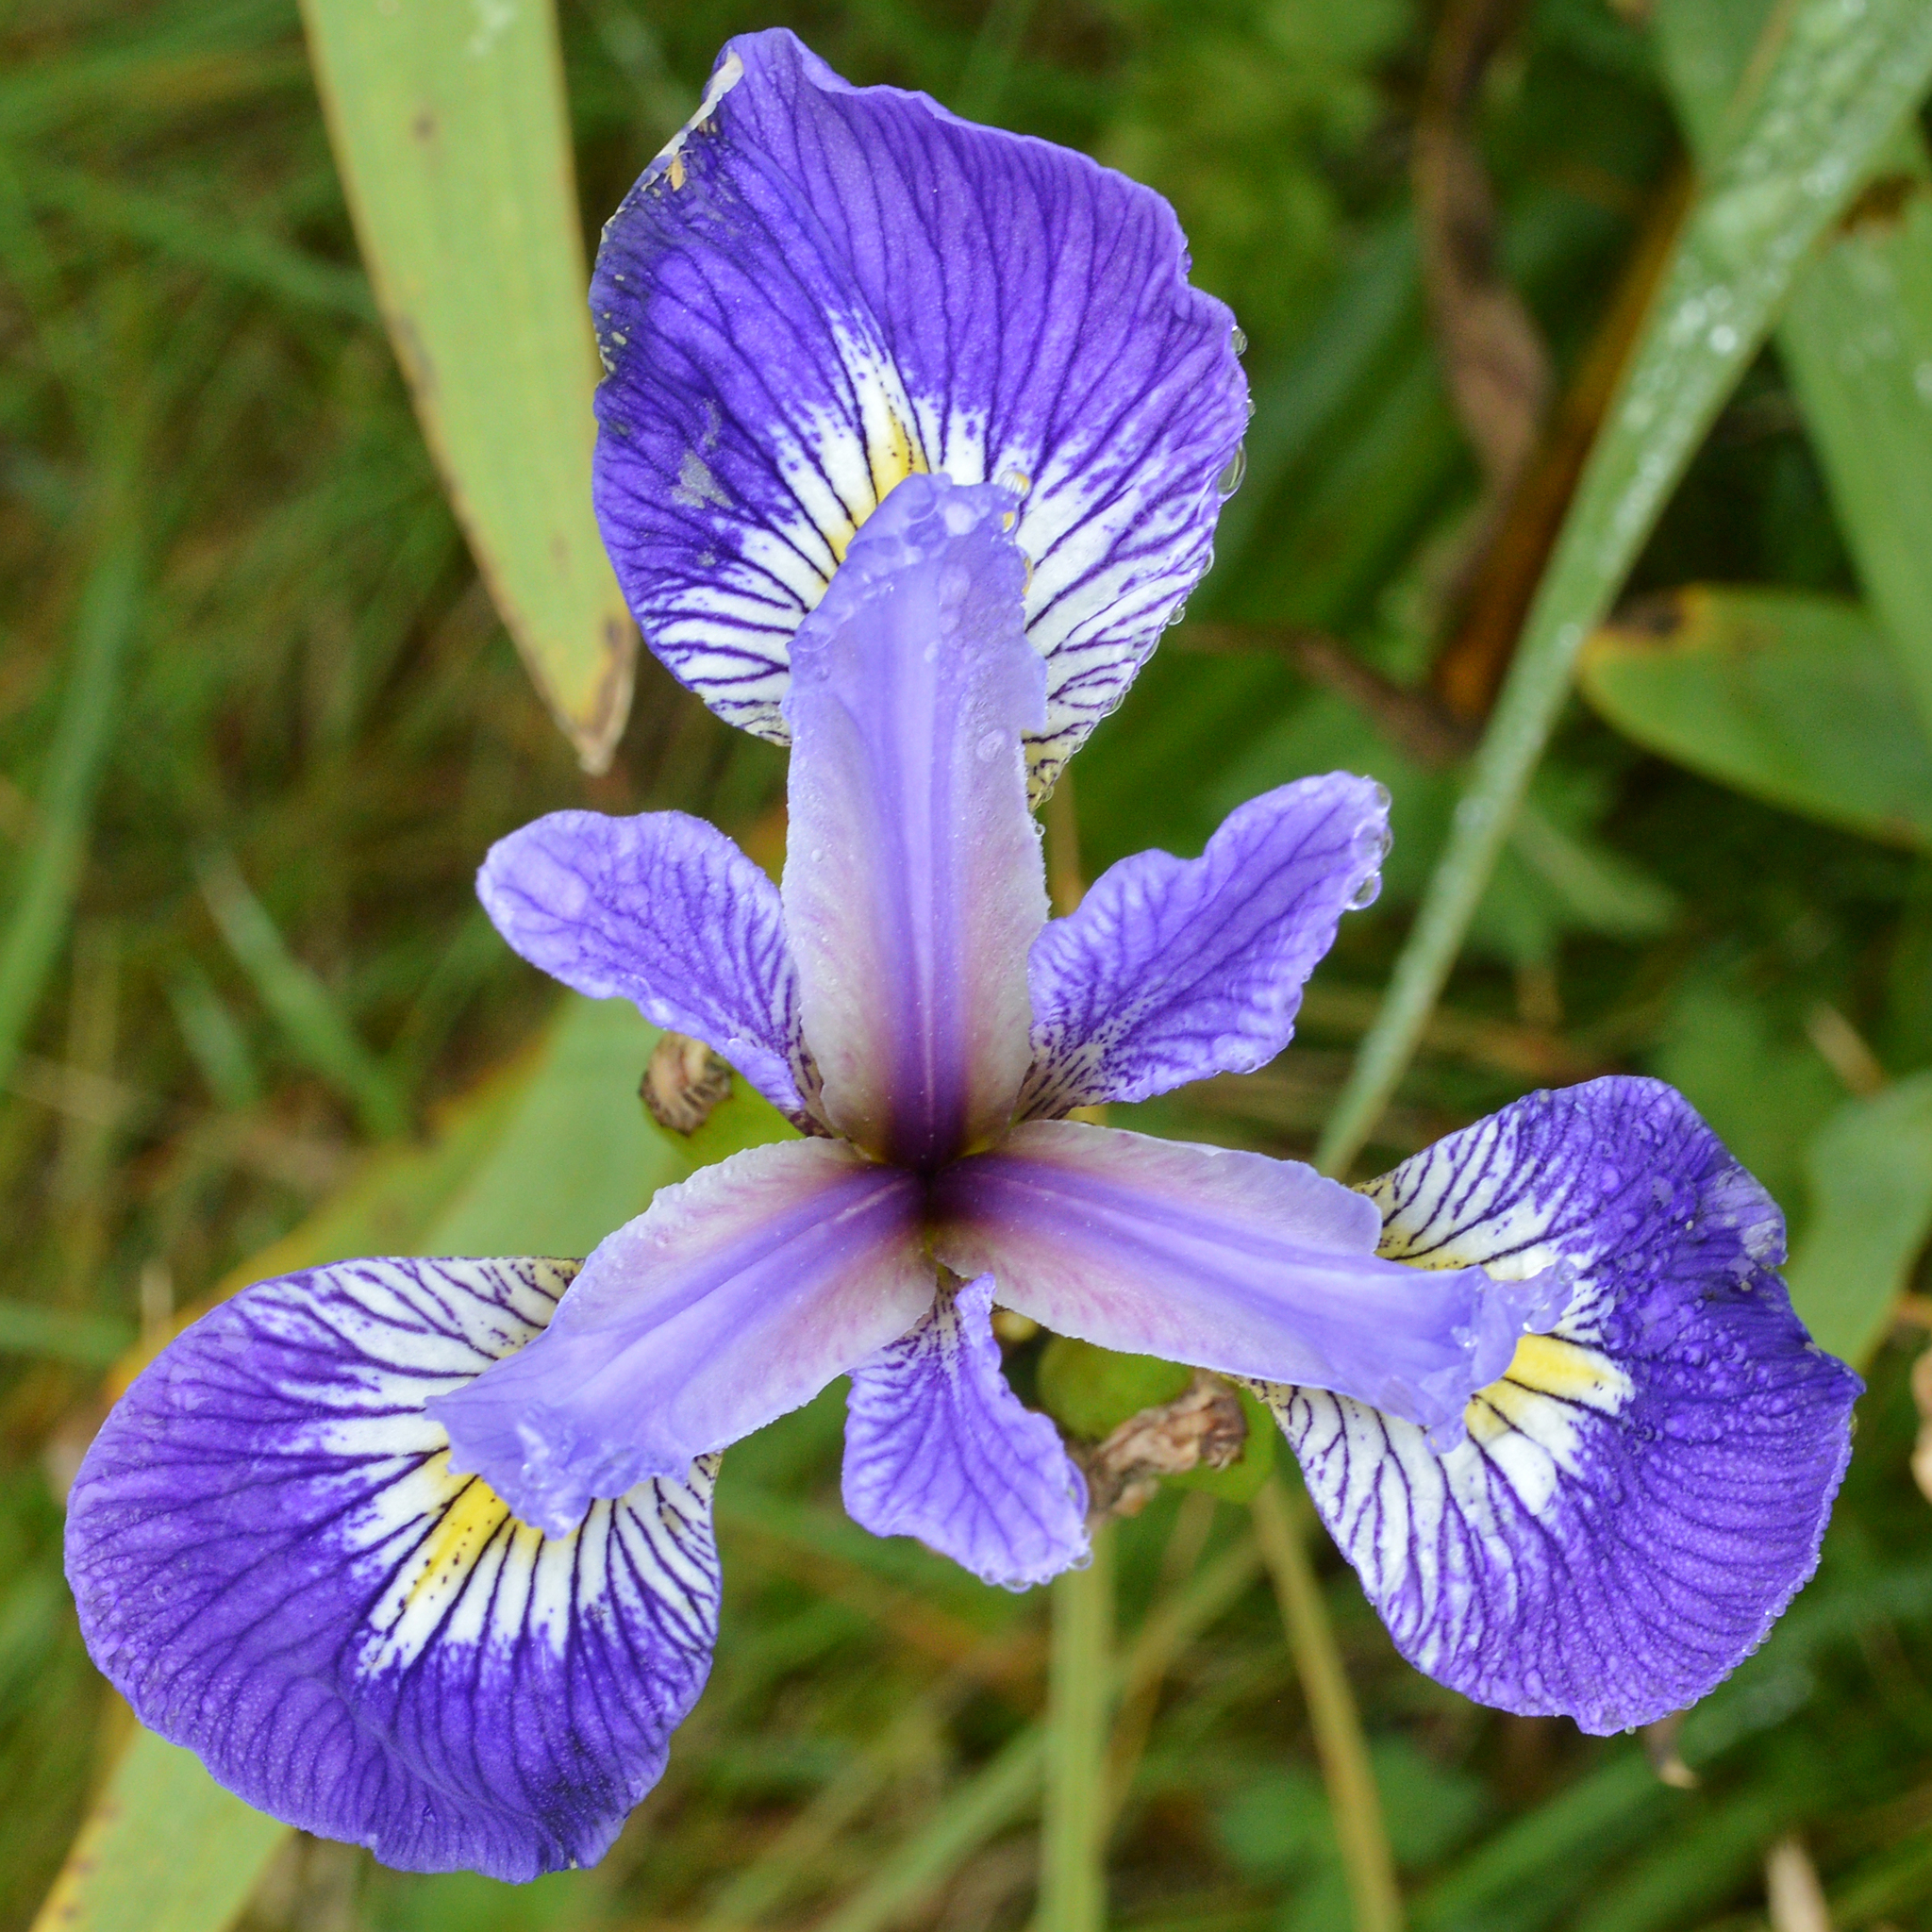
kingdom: Plantae
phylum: Tracheophyta
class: Liliopsida
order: Asparagales
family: Iridaceae
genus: Iris
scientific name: Iris versicolor
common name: Purple iris
